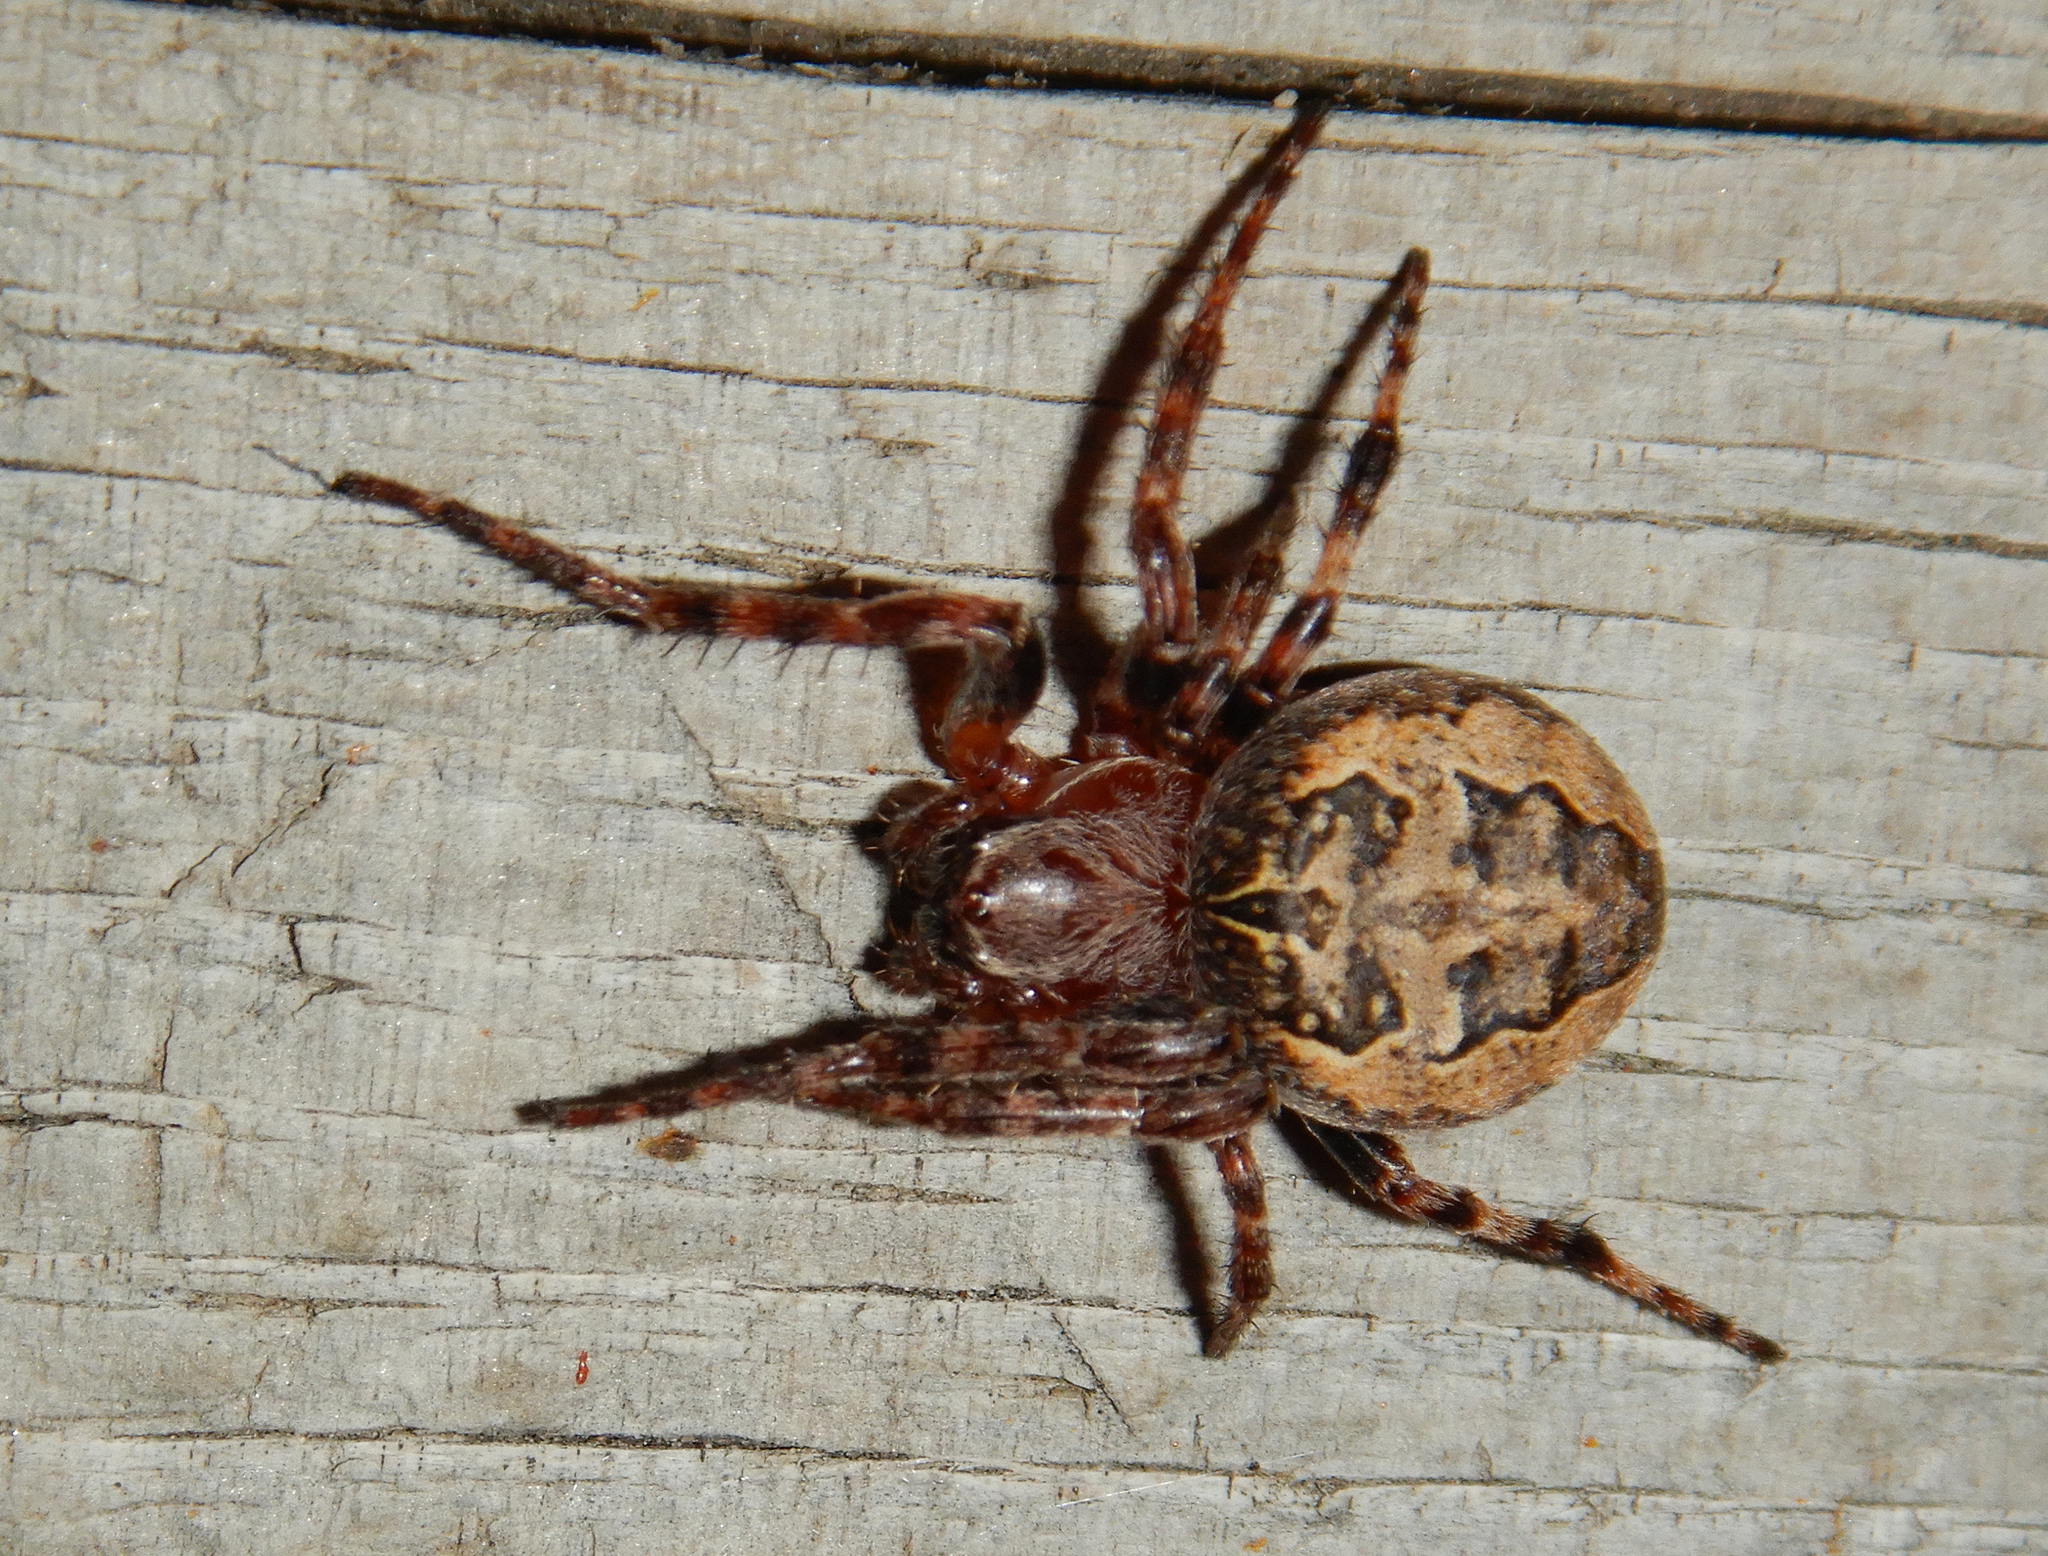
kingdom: Animalia
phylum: Arthropoda
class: Arachnida
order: Araneae
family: Araneidae
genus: Larinioides
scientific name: Larinioides patagiatus
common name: Ornamental orbweaver
